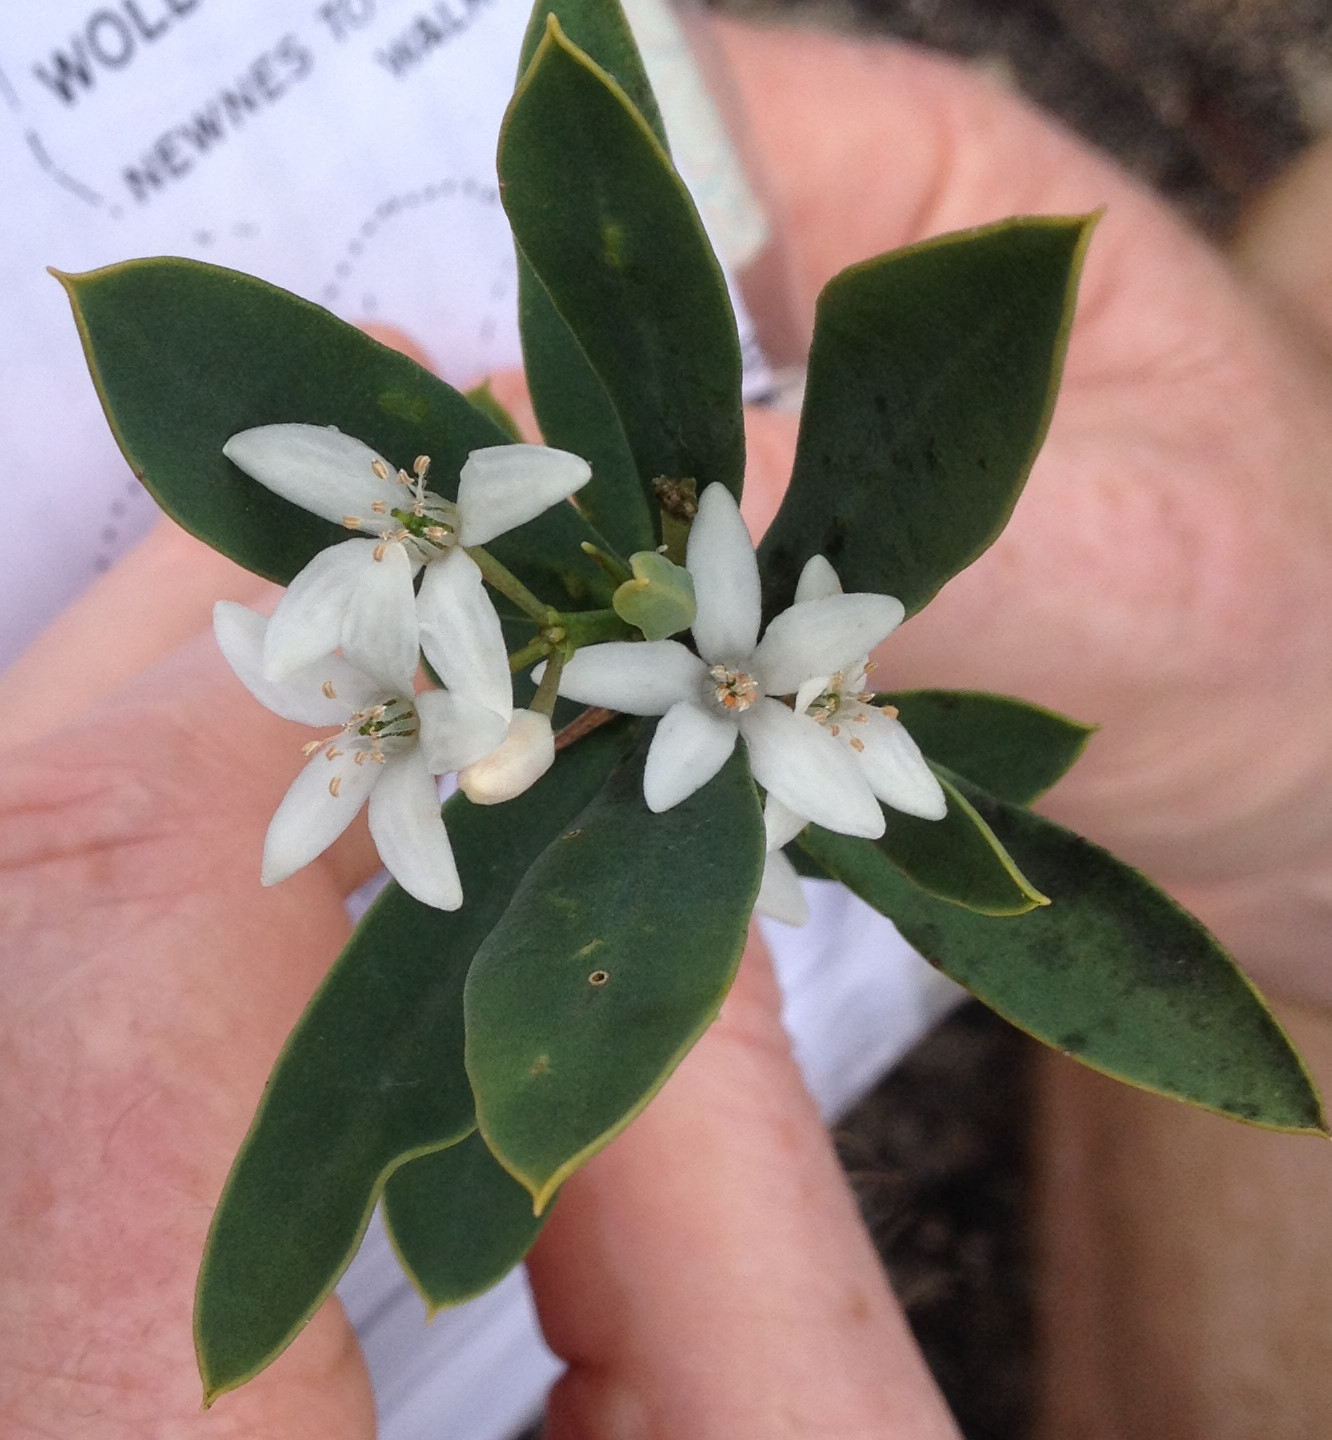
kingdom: Plantae
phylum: Tracheophyta
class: Magnoliopsida
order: Sapindales
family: Rutaceae
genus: Philotheca
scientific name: Philotheca myoporoides
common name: Longleaf waxflower
